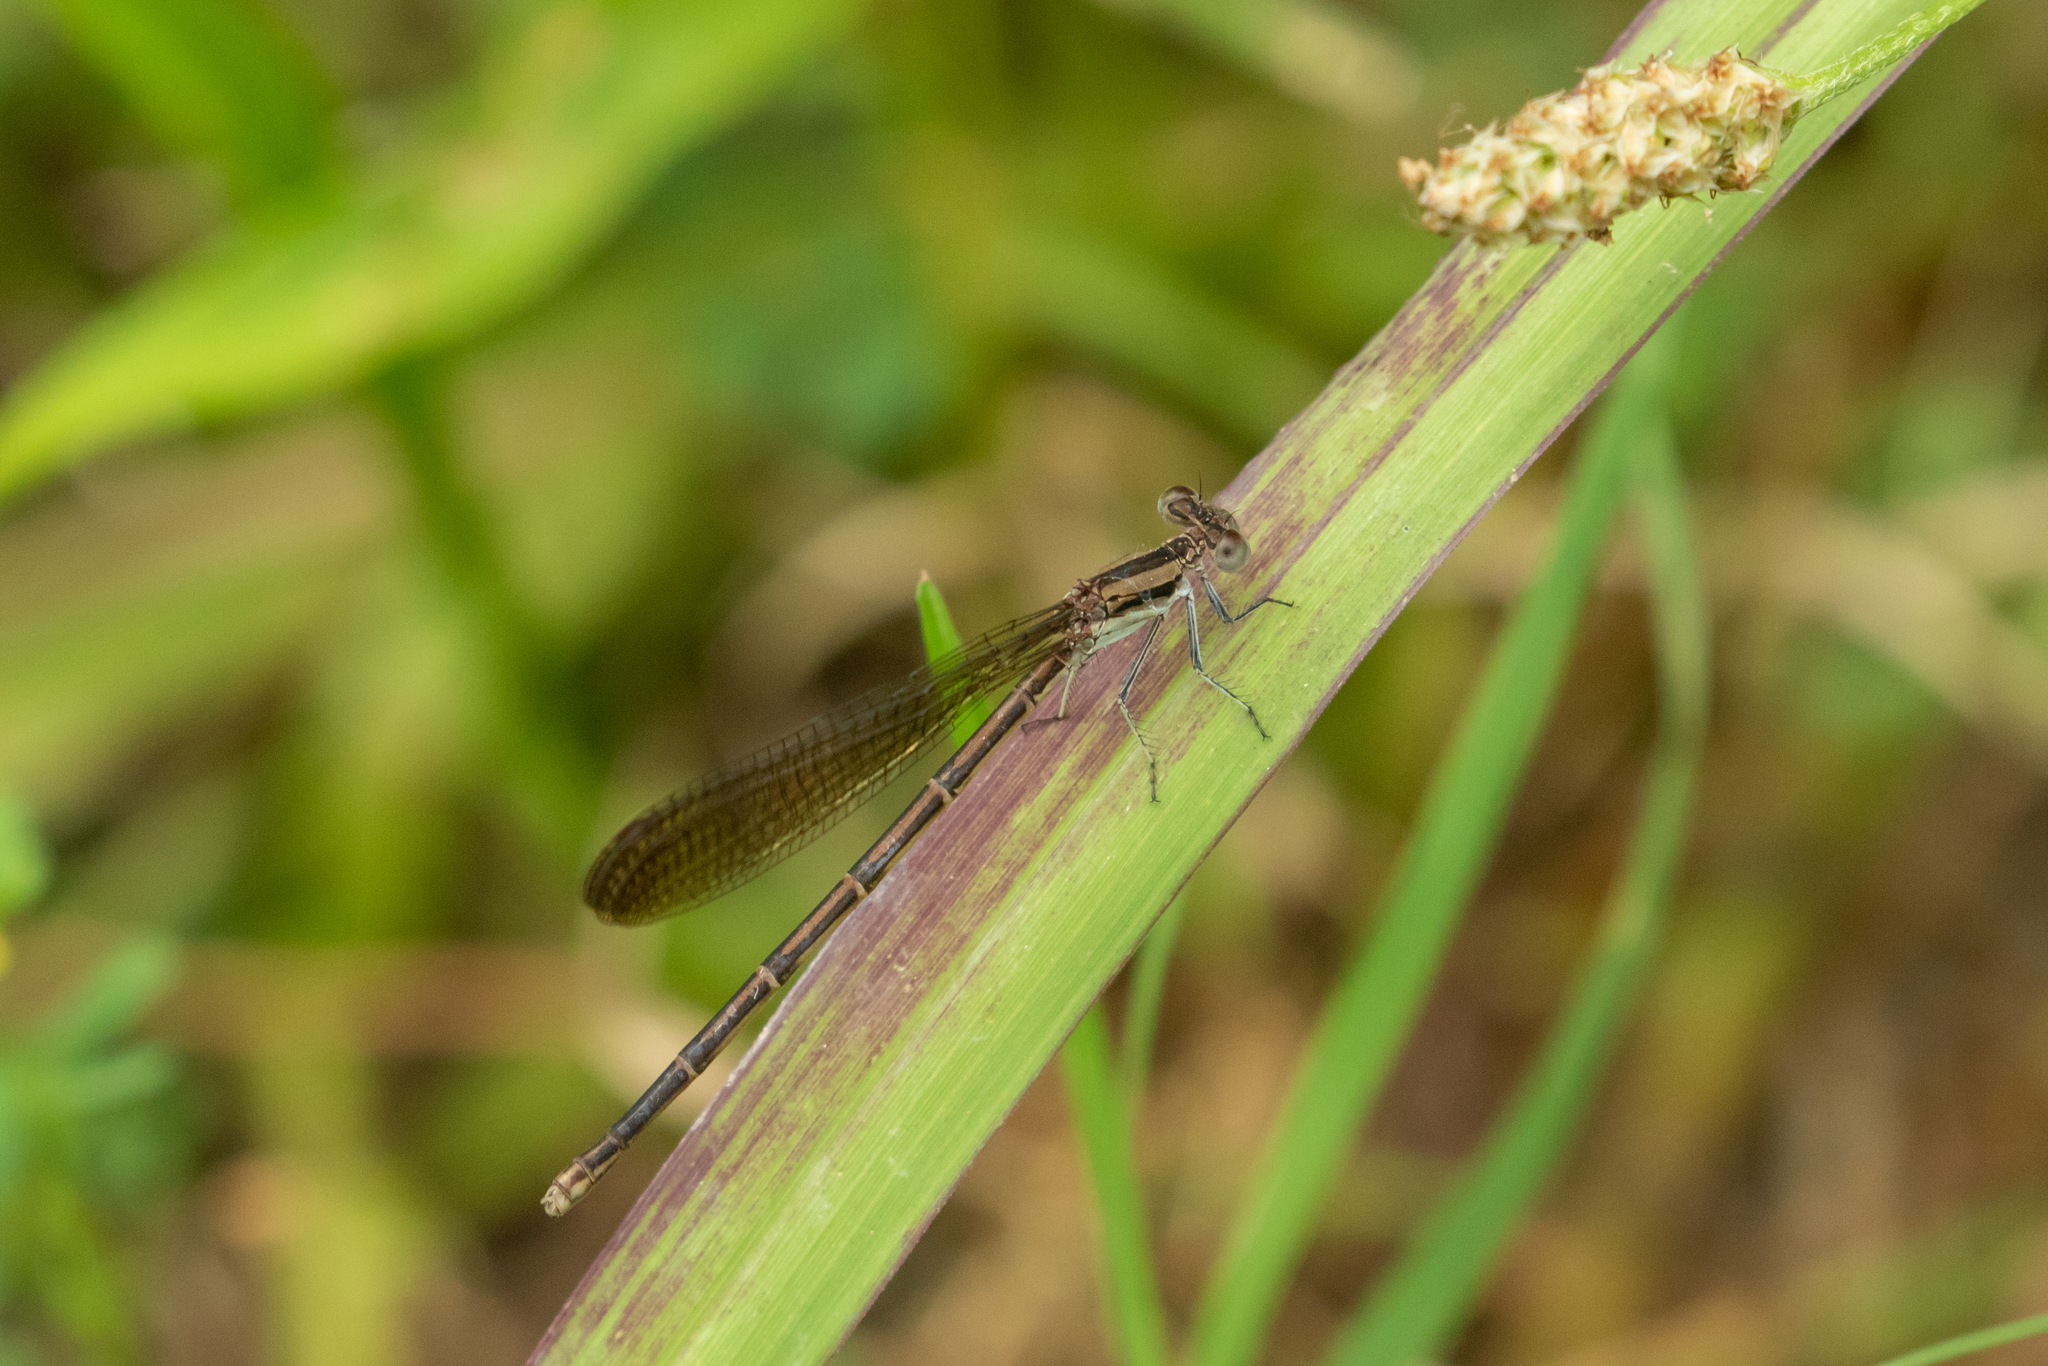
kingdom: Animalia
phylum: Arthropoda
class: Insecta
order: Odonata
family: Coenagrionidae
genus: Argia
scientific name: Argia fumipennis
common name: Variable dancer
